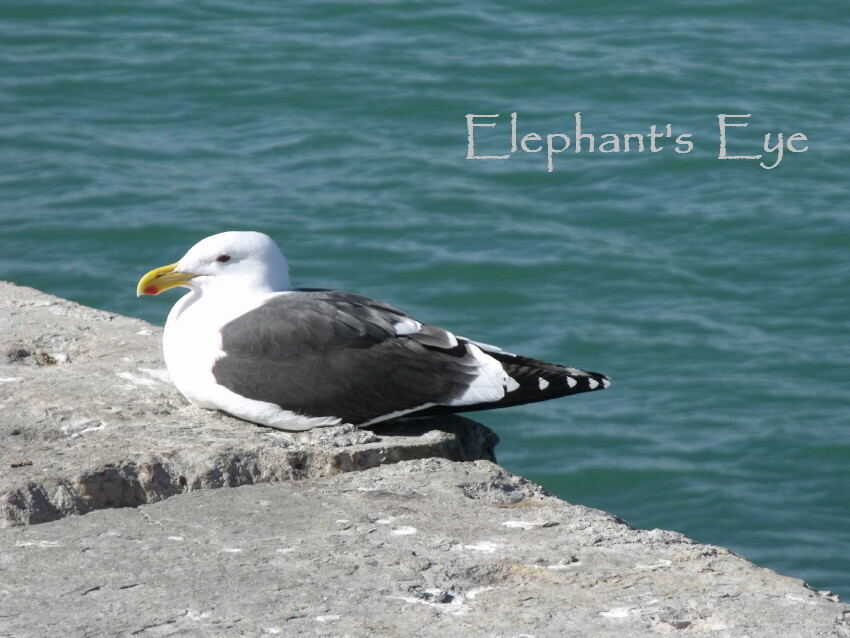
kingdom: Animalia
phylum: Chordata
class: Aves
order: Charadriiformes
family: Laridae
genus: Larus
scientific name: Larus dominicanus
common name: Kelp gull
